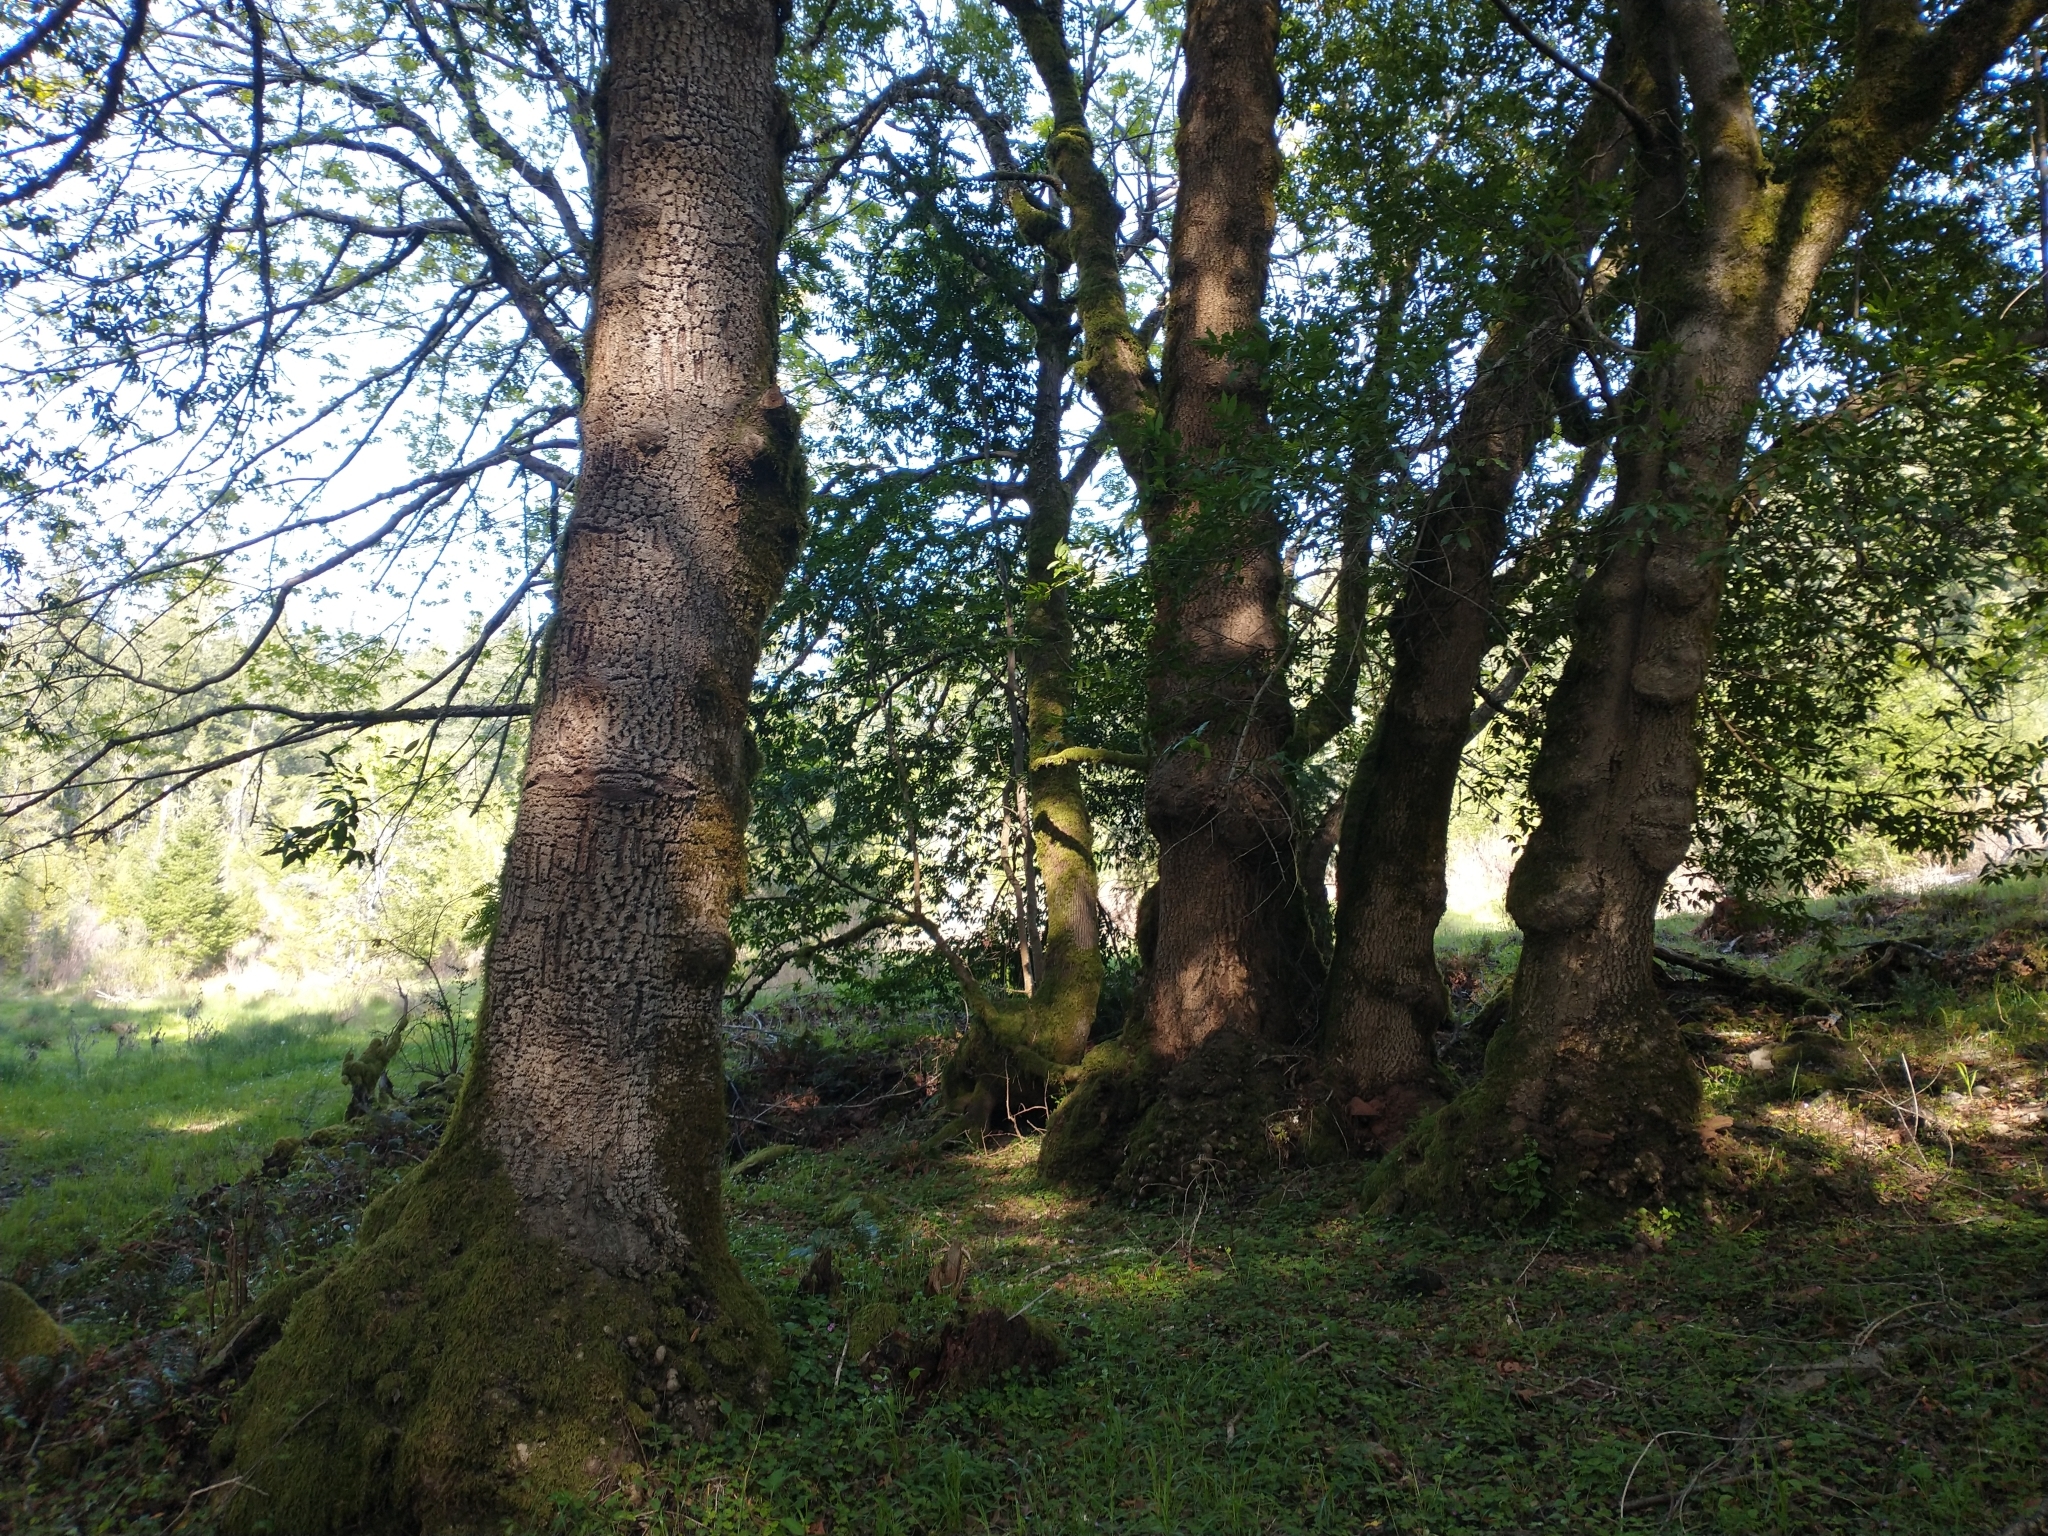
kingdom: Plantae
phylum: Tracheophyta
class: Magnoliopsida
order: Laurales
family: Lauraceae
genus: Umbellularia
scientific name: Umbellularia californica
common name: California bay
